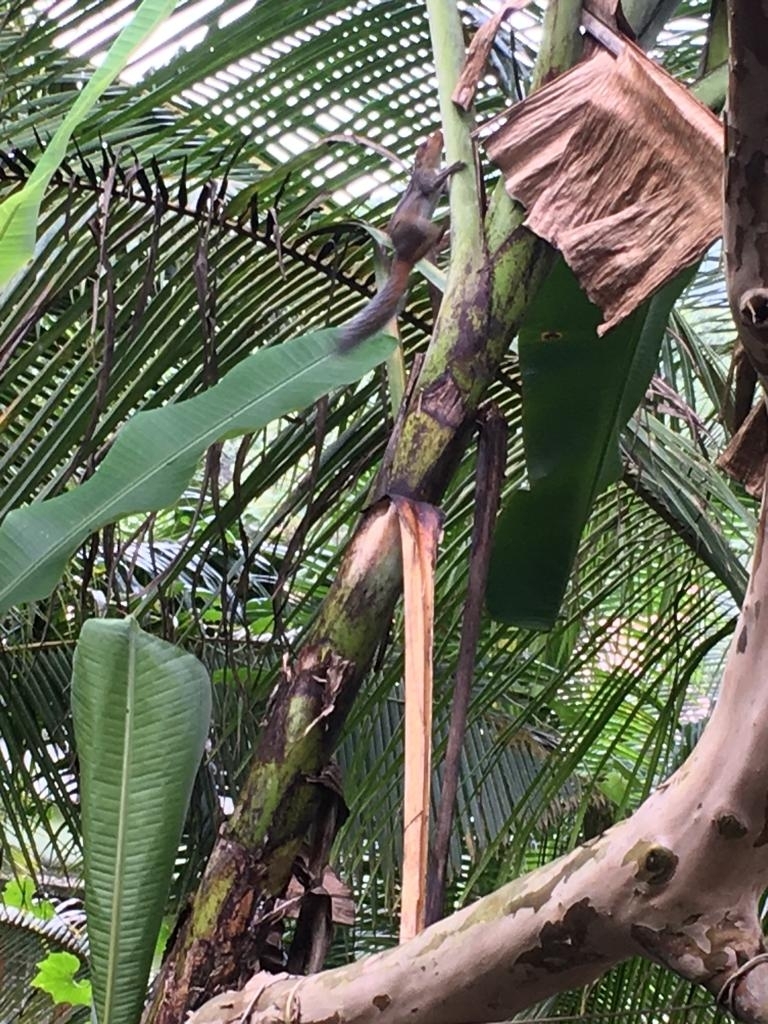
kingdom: Animalia
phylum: Chordata
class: Mammalia
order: Rodentia
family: Sciuridae
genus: Funambulus
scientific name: Funambulus tristriatus
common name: Jungle palm squirrel
